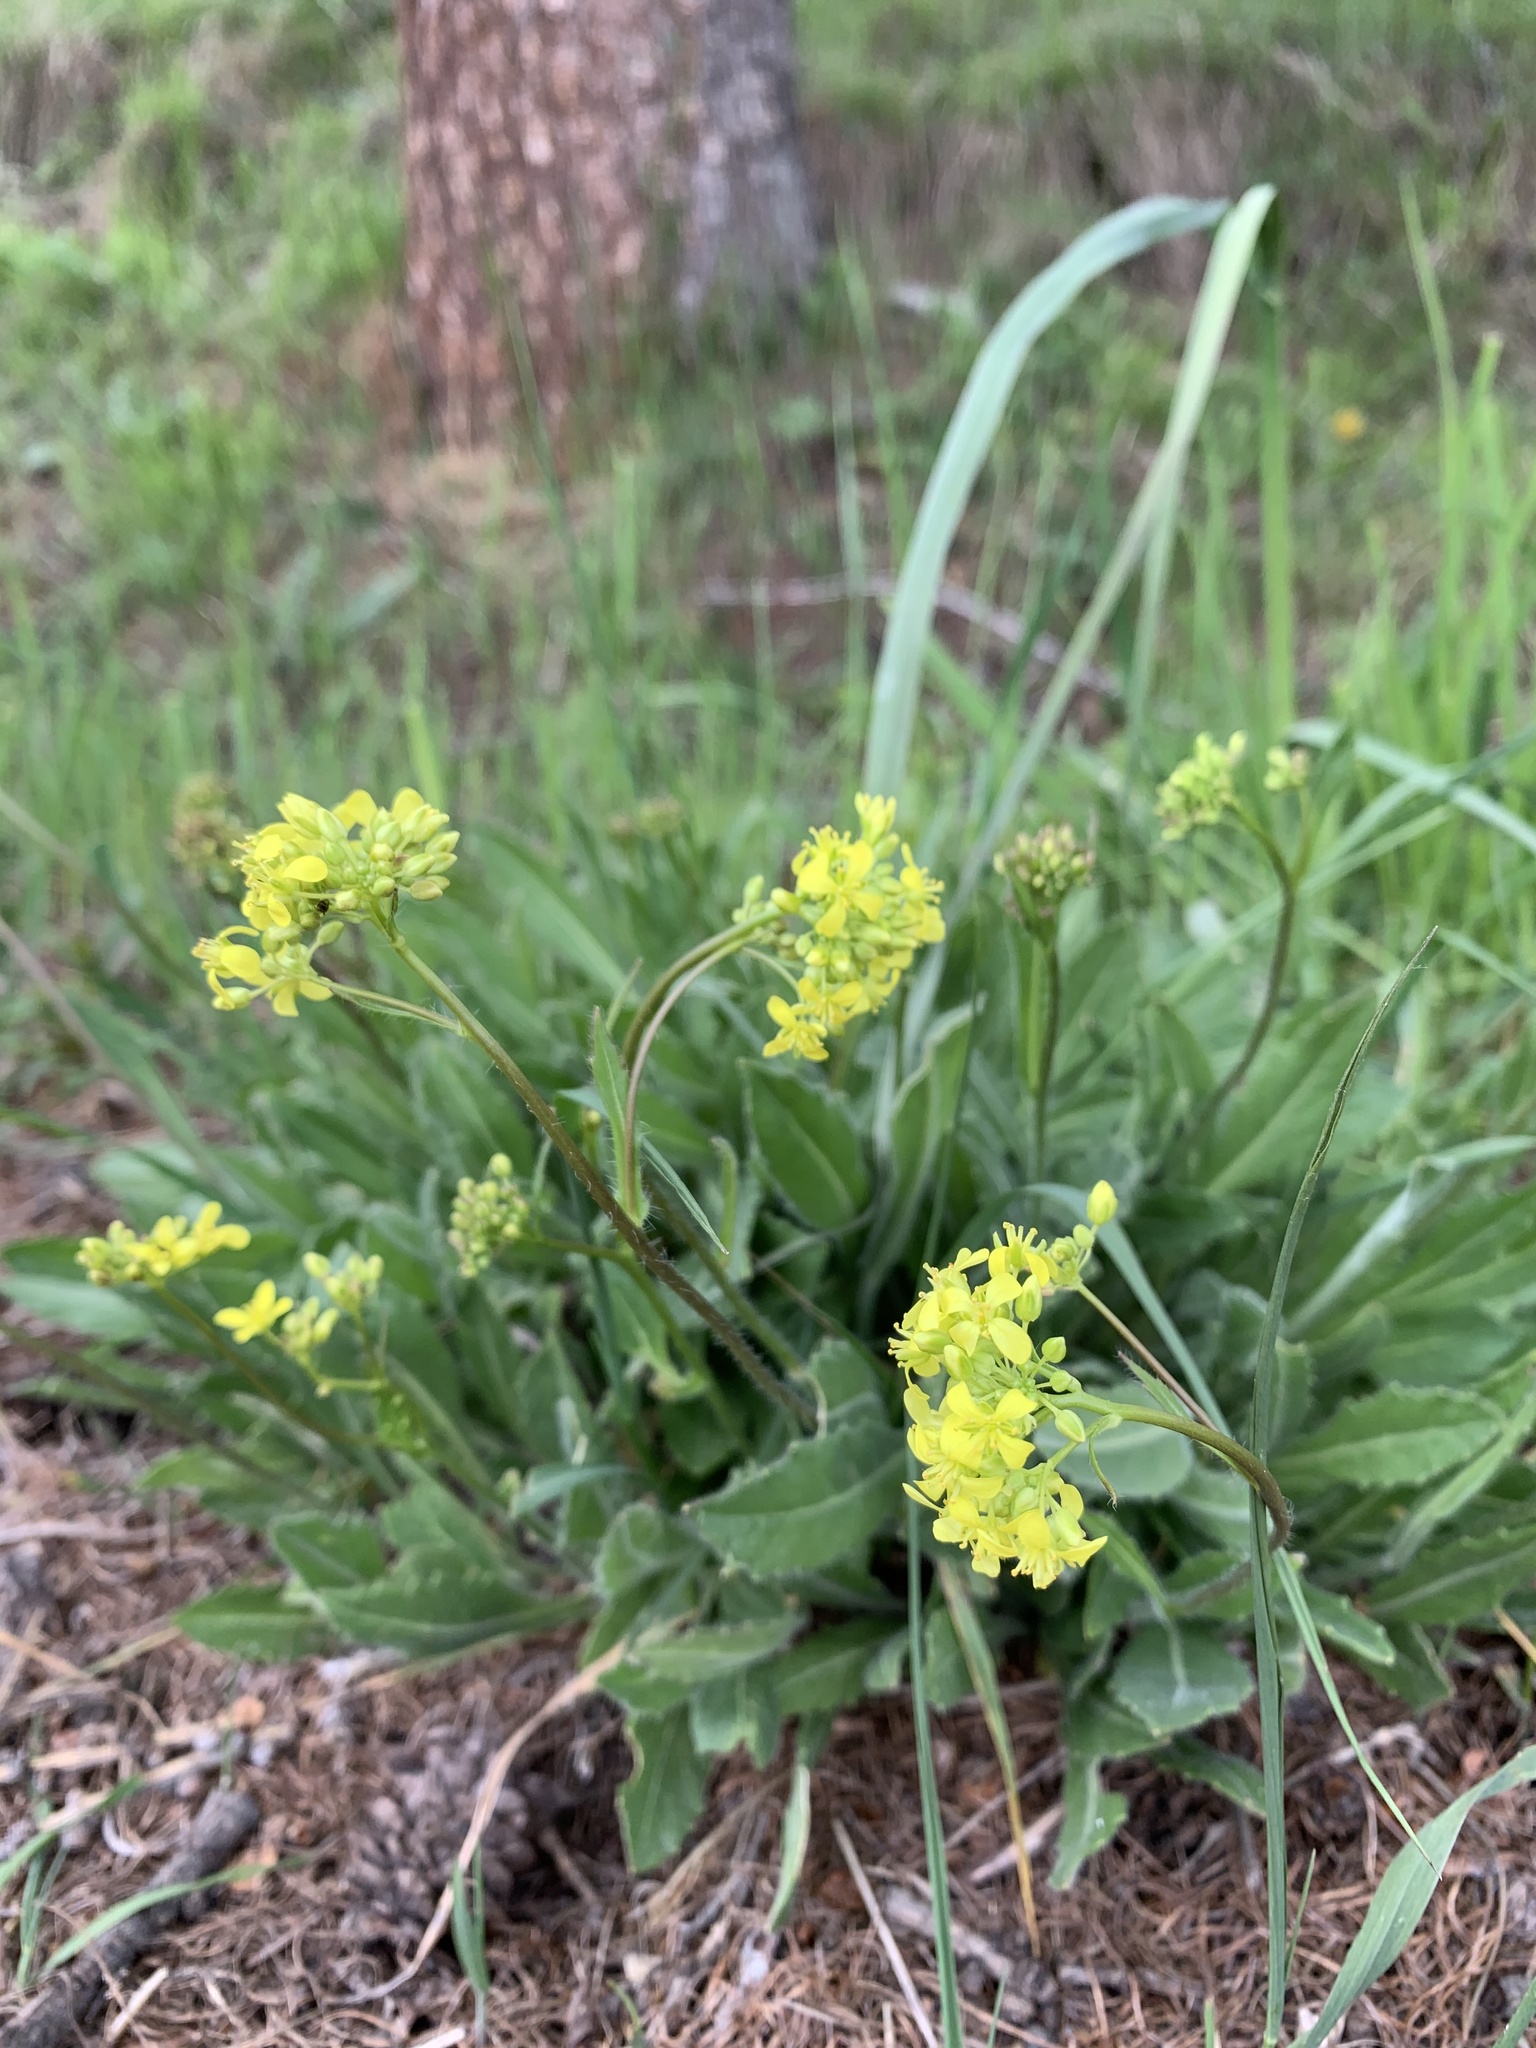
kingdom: Plantae
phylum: Tracheophyta
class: Magnoliopsida
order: Brassicales
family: Brassicaceae
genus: Biscutella
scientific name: Biscutella laevigata
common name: Buckler mustard
